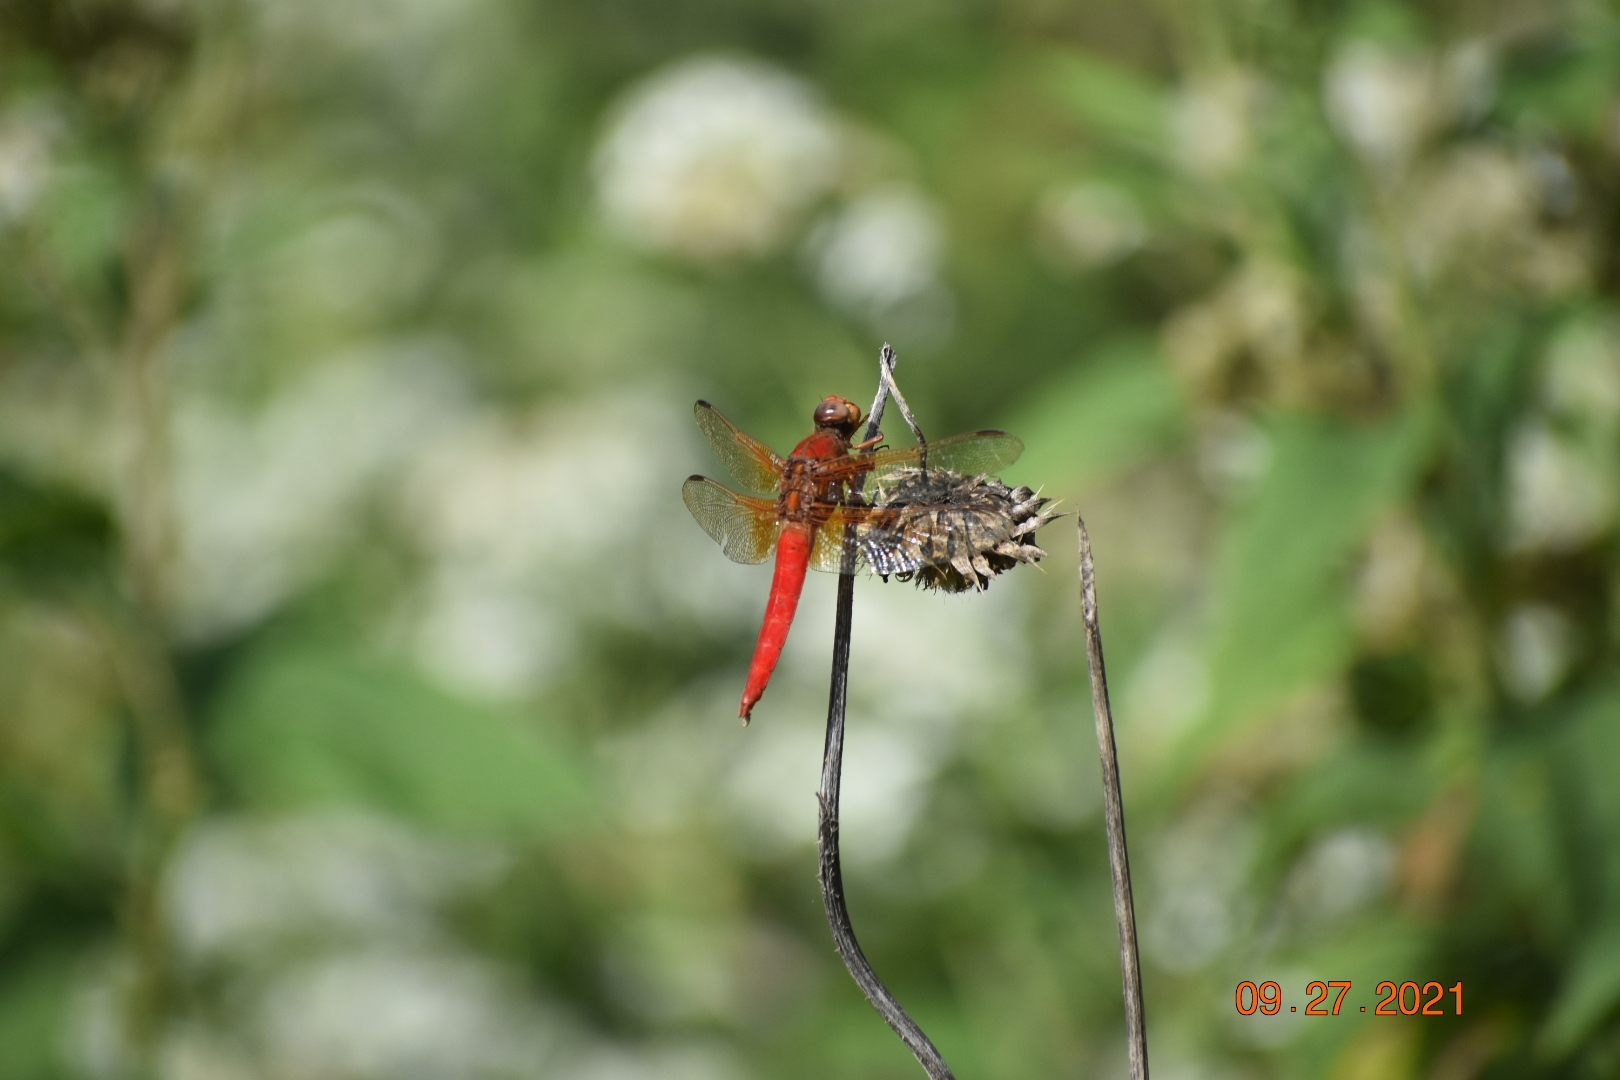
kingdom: Animalia
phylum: Arthropoda
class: Insecta
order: Odonata
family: Libellulidae
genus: Libellula
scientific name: Libellula croceipennis
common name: Neon skimmer
